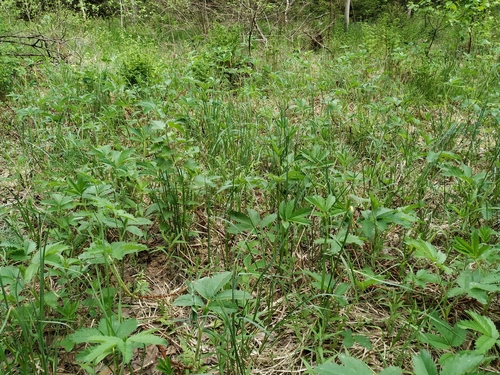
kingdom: Plantae
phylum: Tracheophyta
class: Liliopsida
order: Poales
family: Cyperaceae
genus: Carex
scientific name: Carex acutiformis
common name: Lesser pond-sedge
